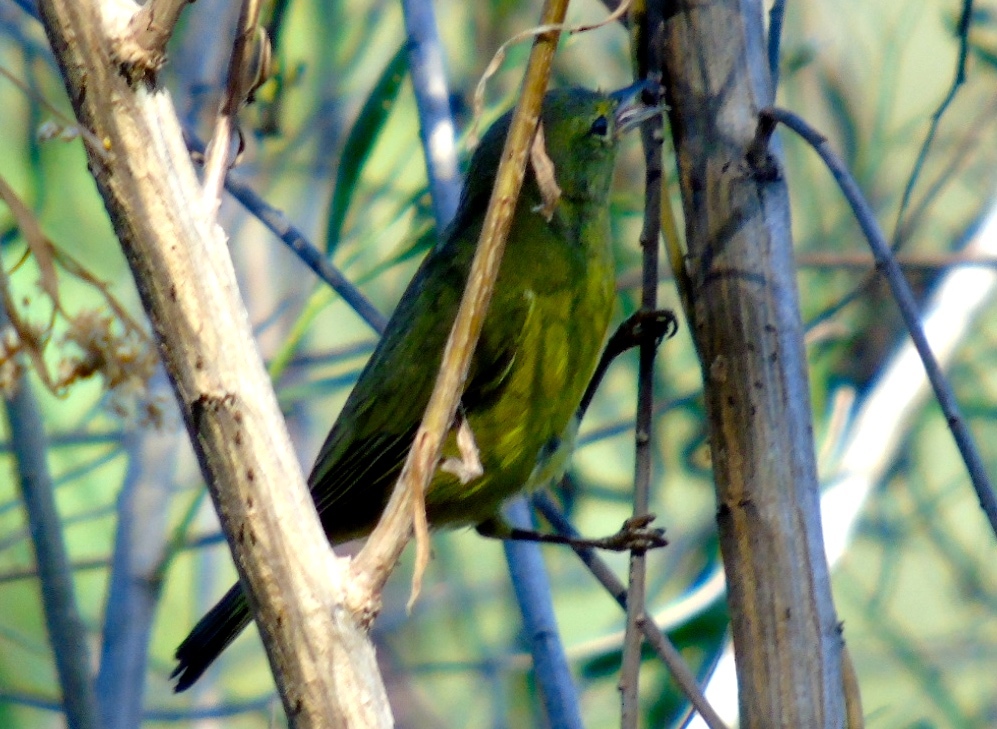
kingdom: Animalia
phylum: Chordata
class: Aves
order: Passeriformes
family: Parulidae
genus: Leiothlypis
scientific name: Leiothlypis celata
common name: Orange-crowned warbler
